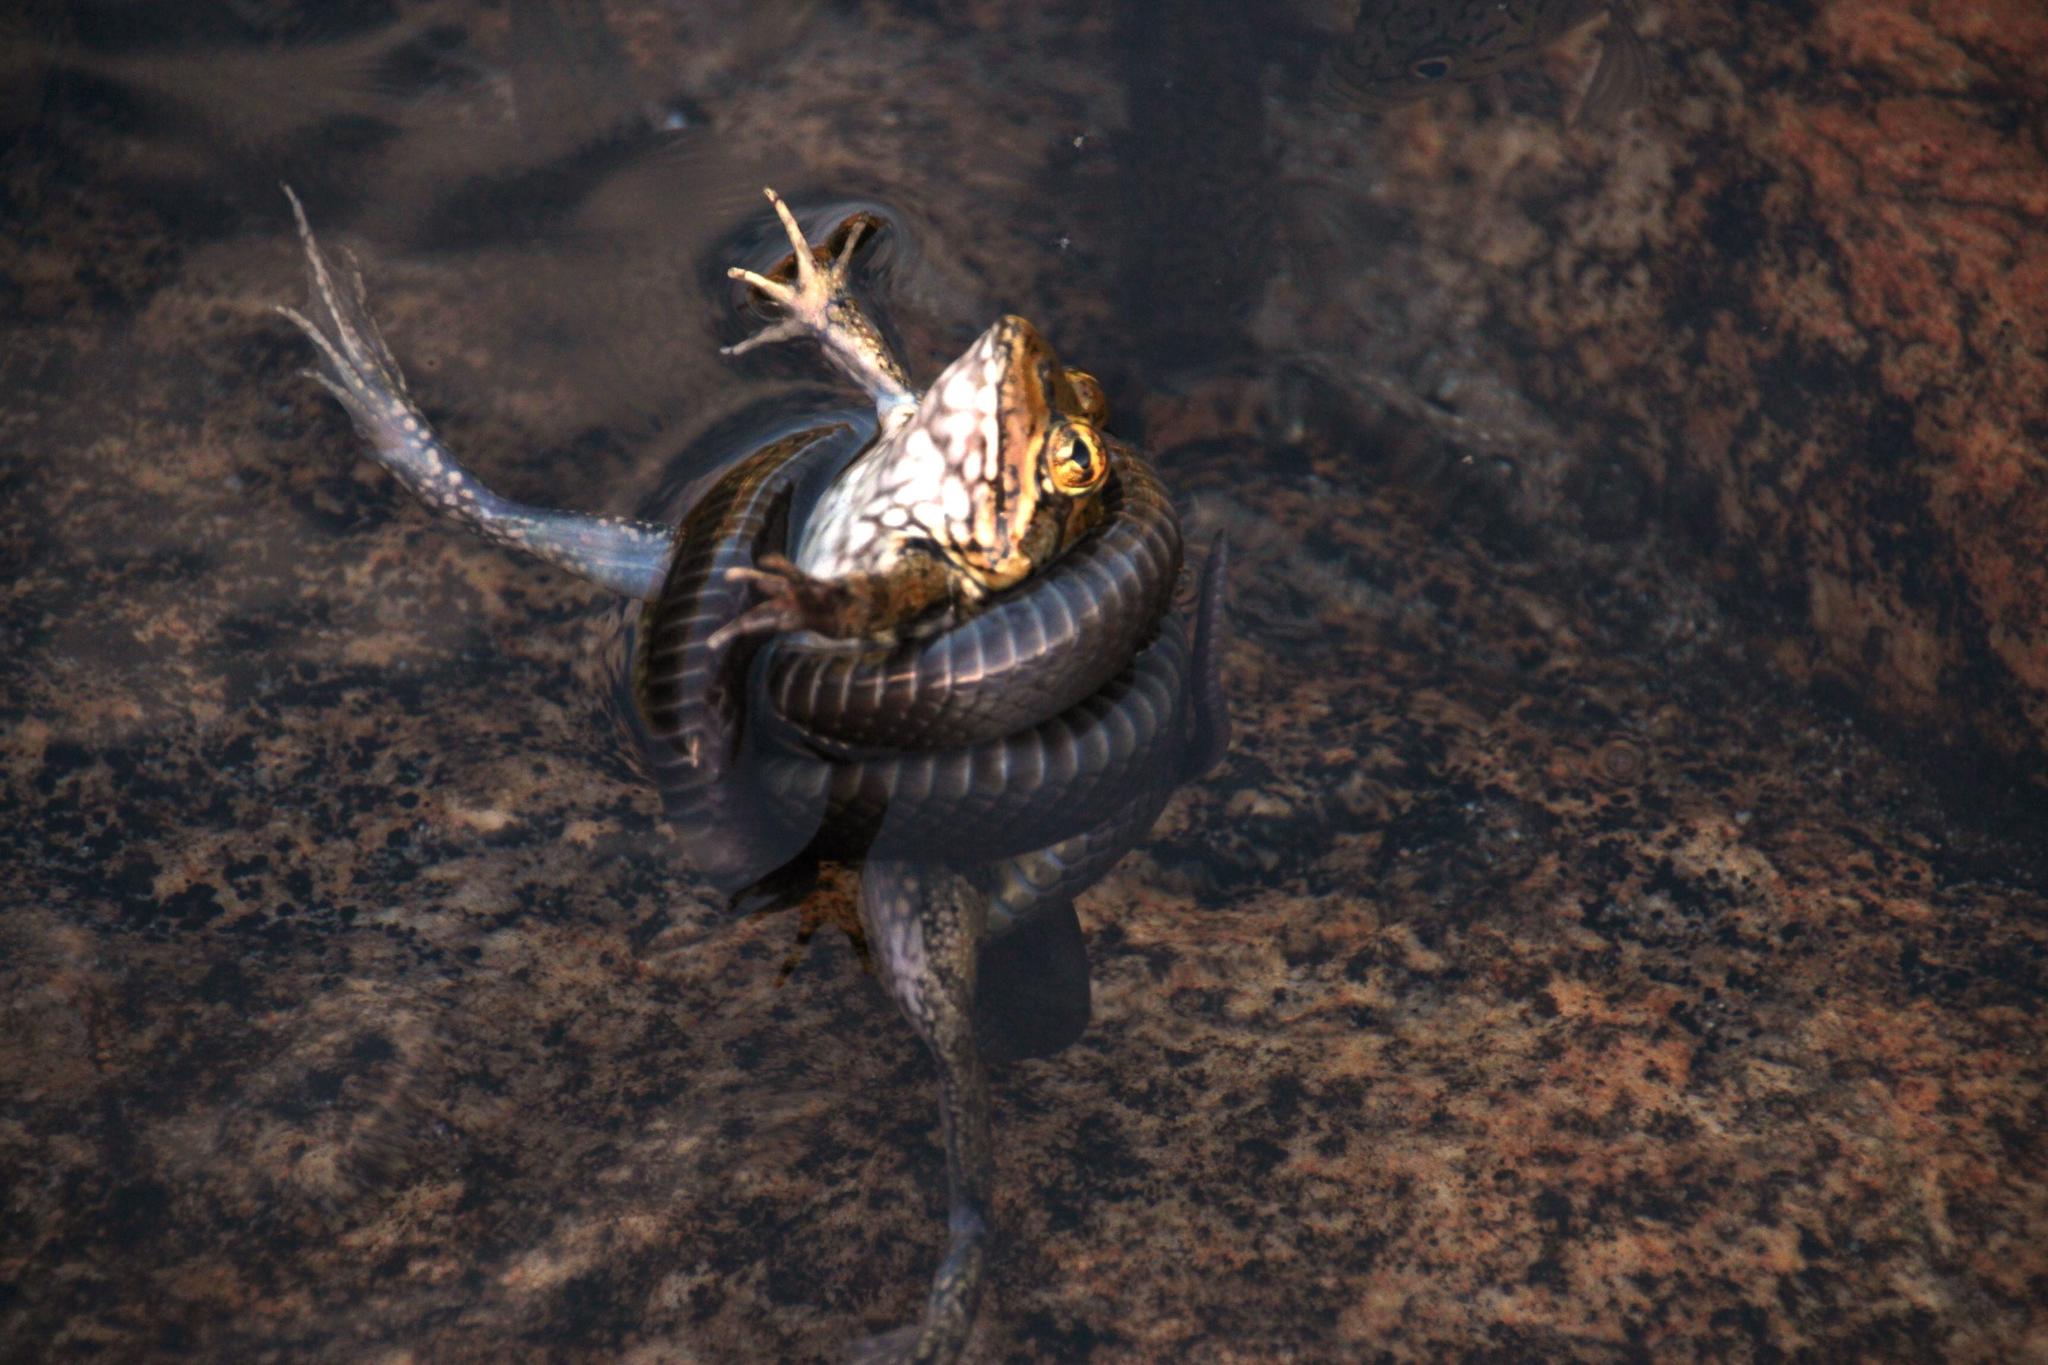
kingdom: Animalia
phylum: Chordata
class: Amphibia
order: Anura
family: Pyxicephalidae
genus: Amietia
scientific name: Amietia fuscigula
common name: Cape rana
